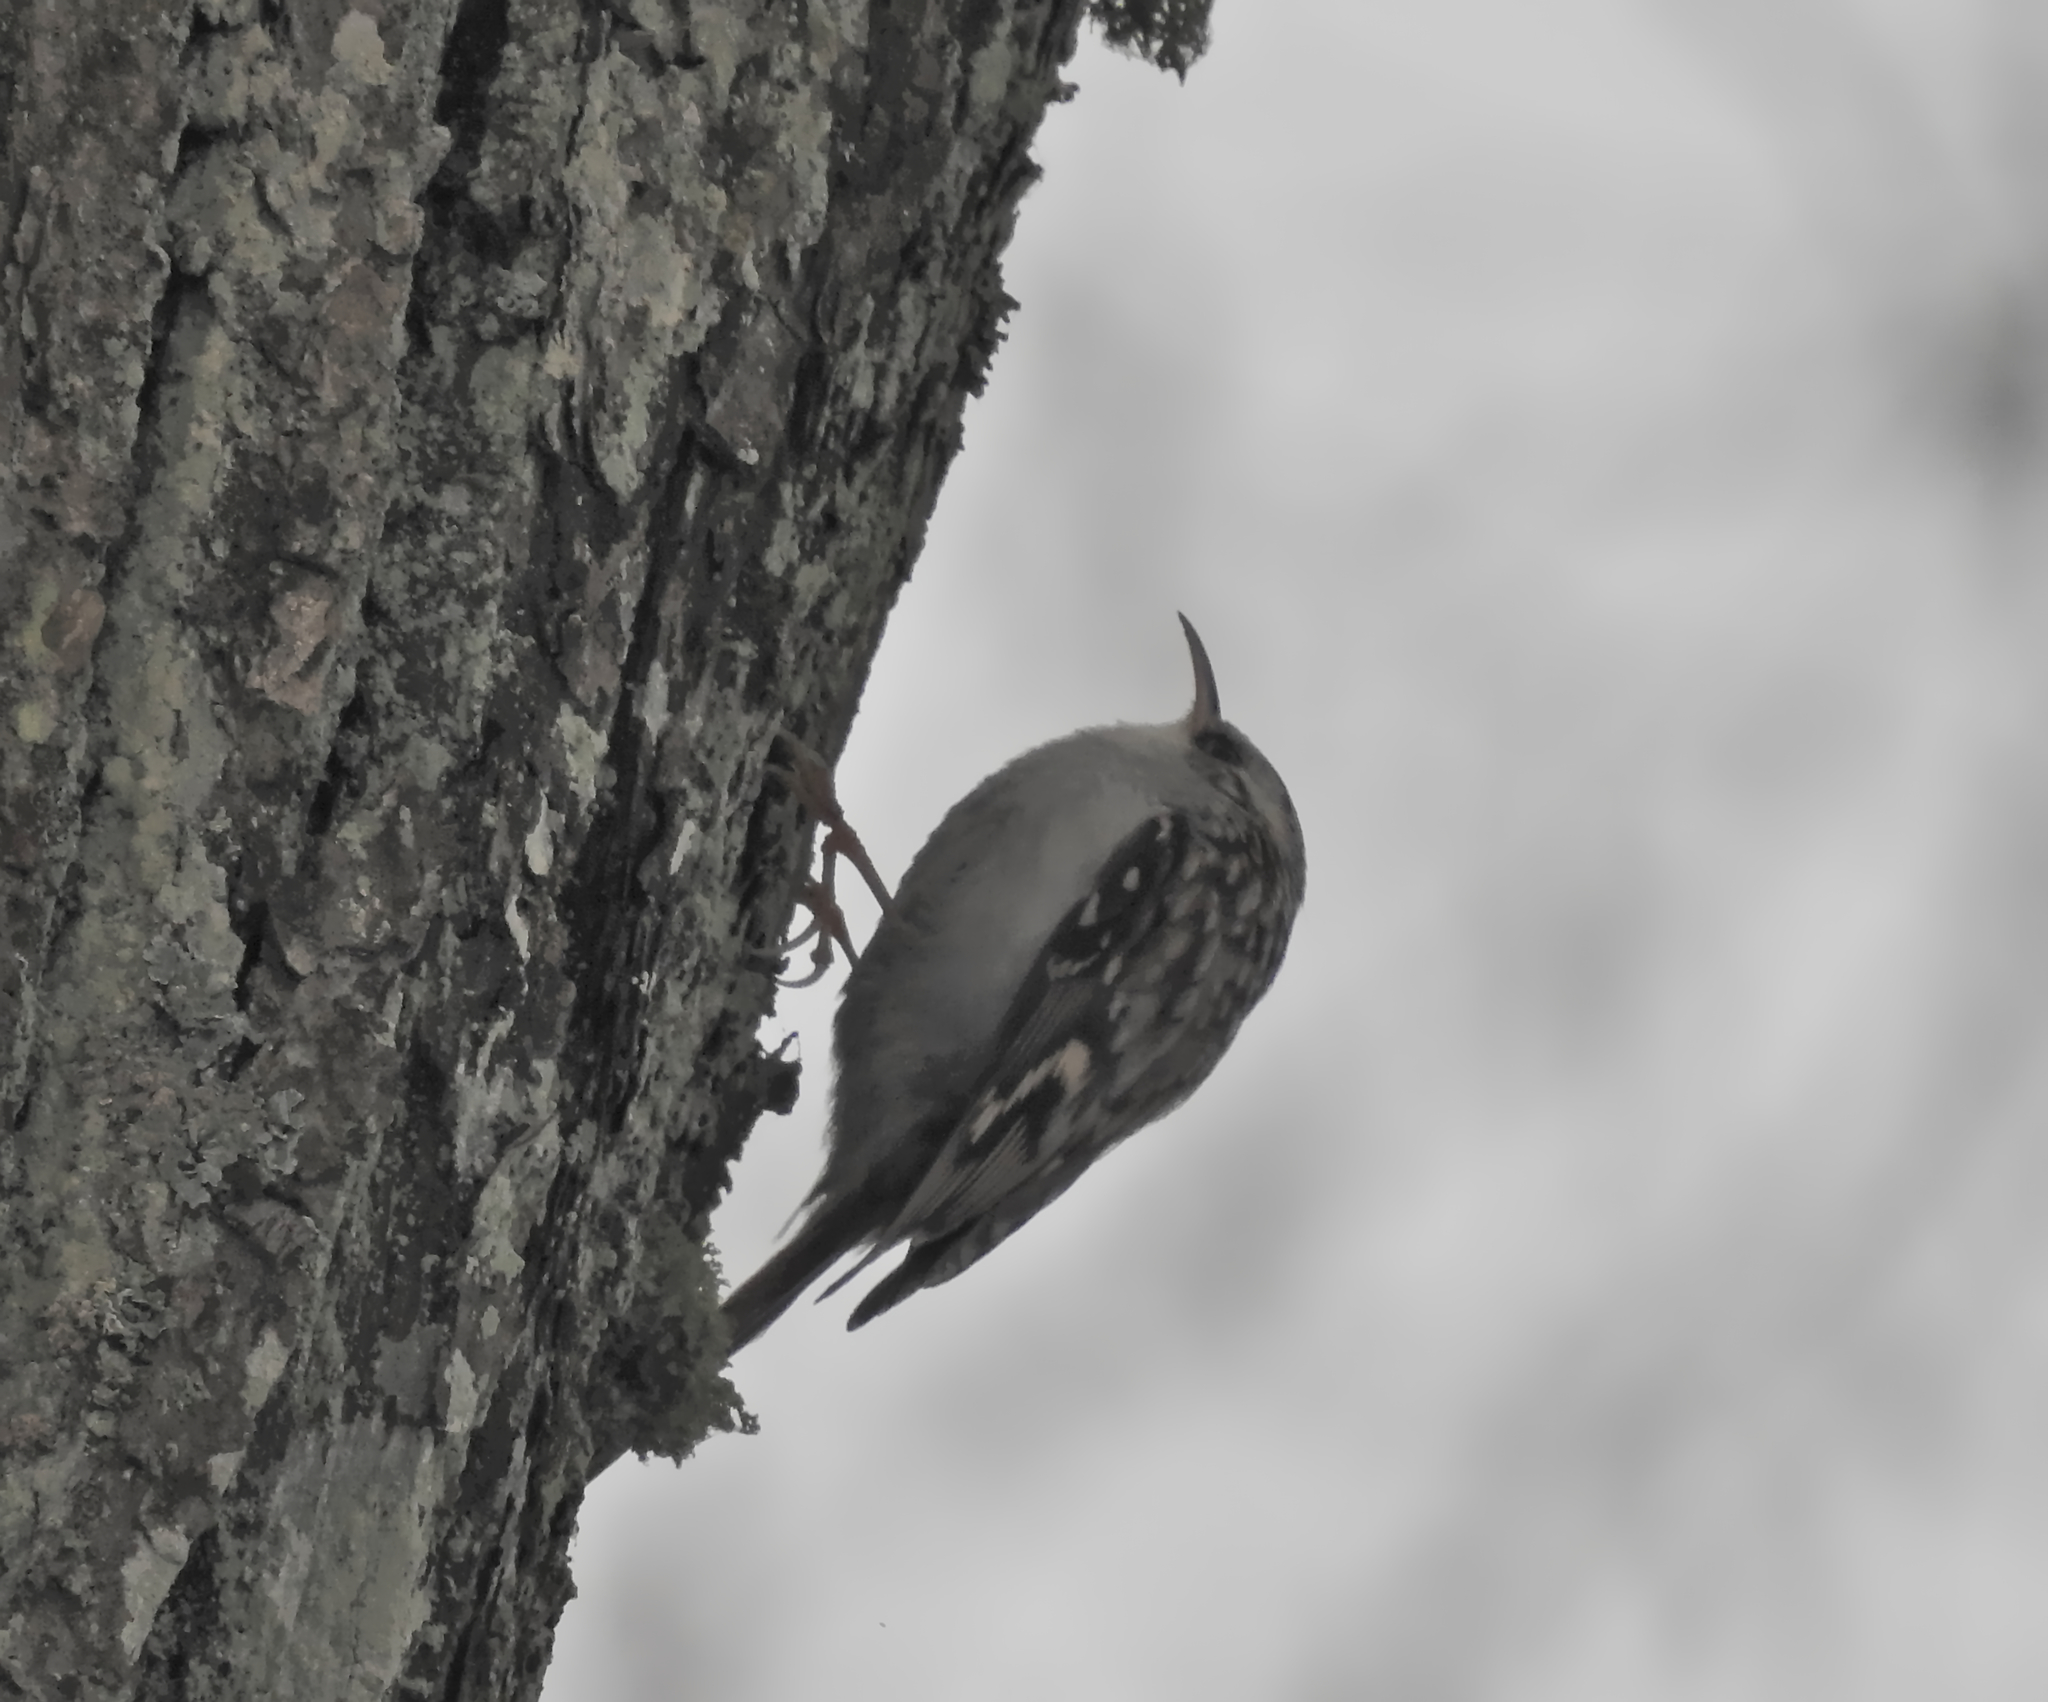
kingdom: Animalia
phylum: Chordata
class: Aves
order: Passeriformes
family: Certhiidae
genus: Certhia
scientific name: Certhia familiaris
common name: Eurasian treecreeper
